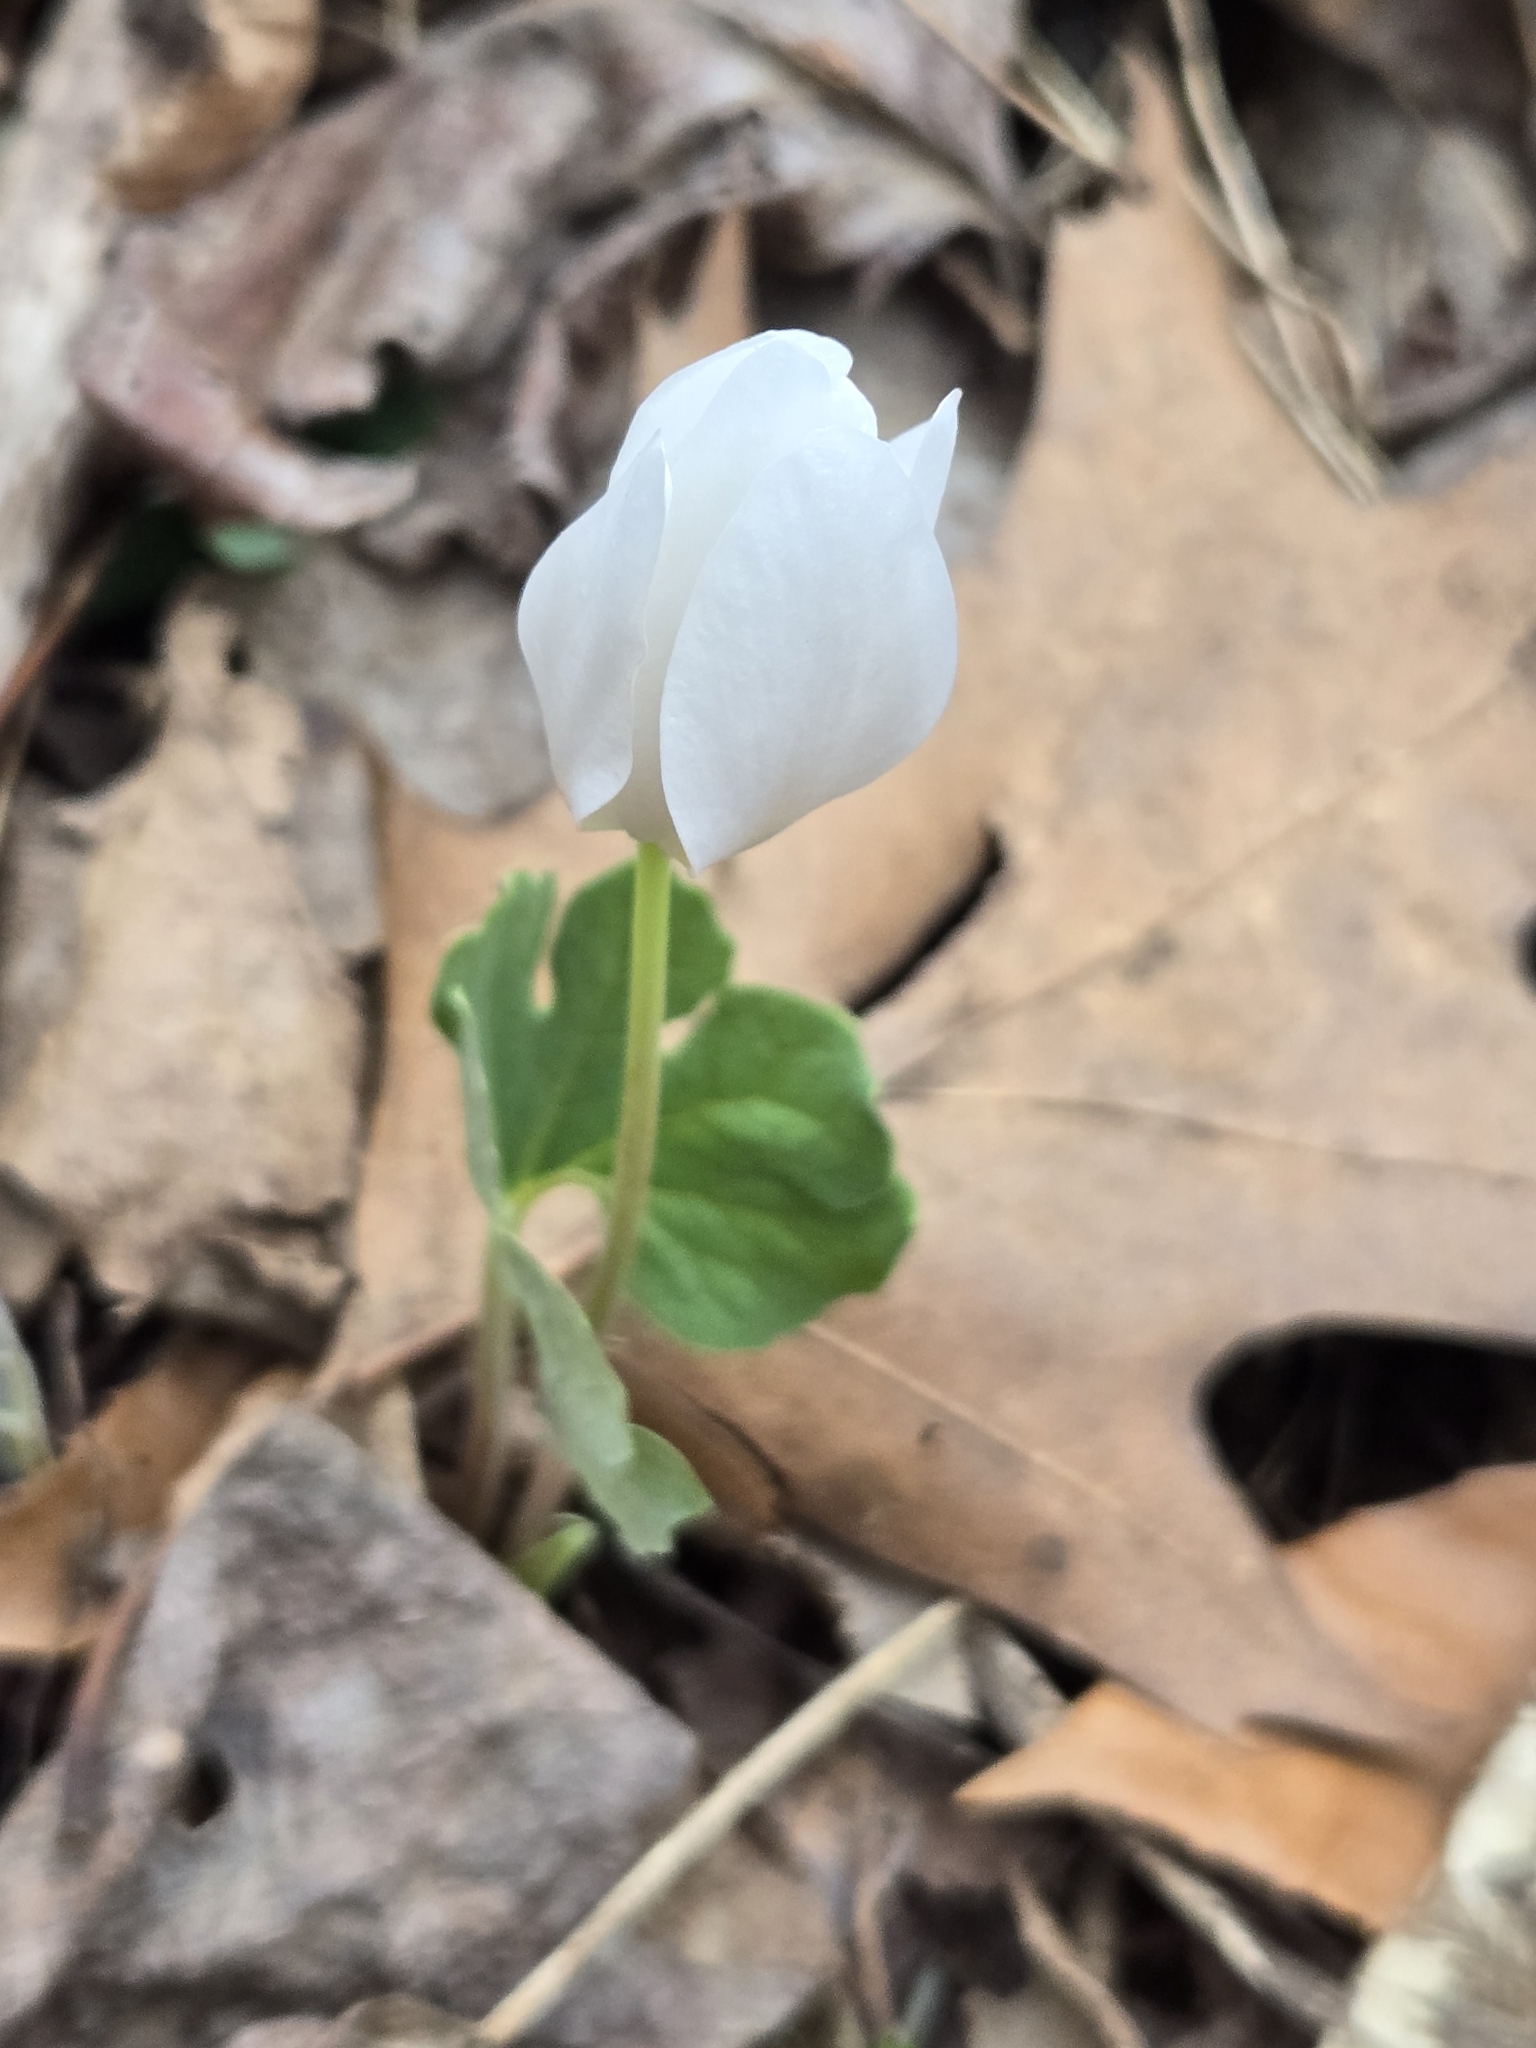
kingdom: Plantae
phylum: Tracheophyta
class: Magnoliopsida
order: Ranunculales
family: Papaveraceae
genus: Sanguinaria
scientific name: Sanguinaria canadensis
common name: Bloodroot
